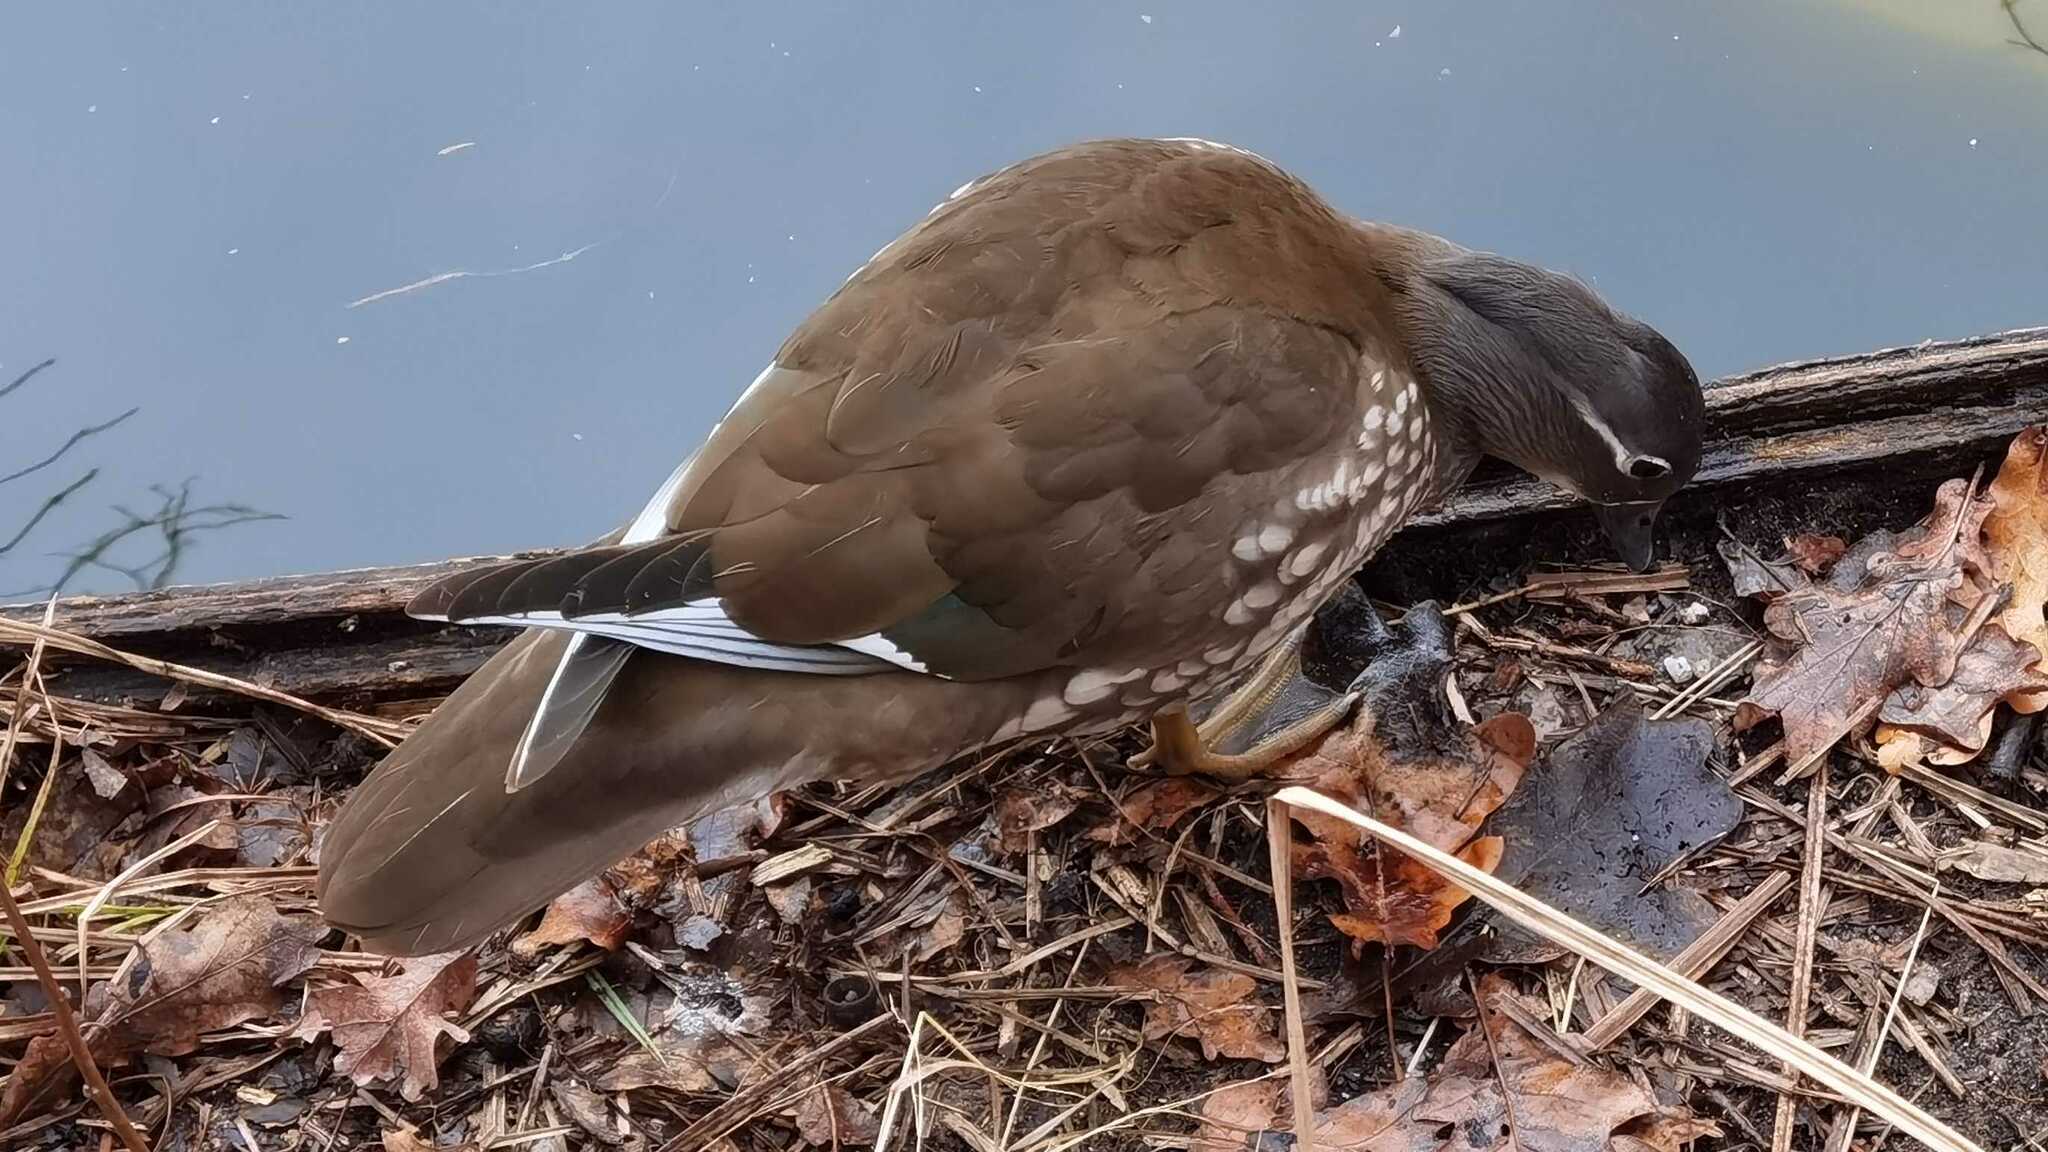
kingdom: Animalia
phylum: Chordata
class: Aves
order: Anseriformes
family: Anatidae
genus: Aix
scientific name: Aix galericulata
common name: Mandarin duck
